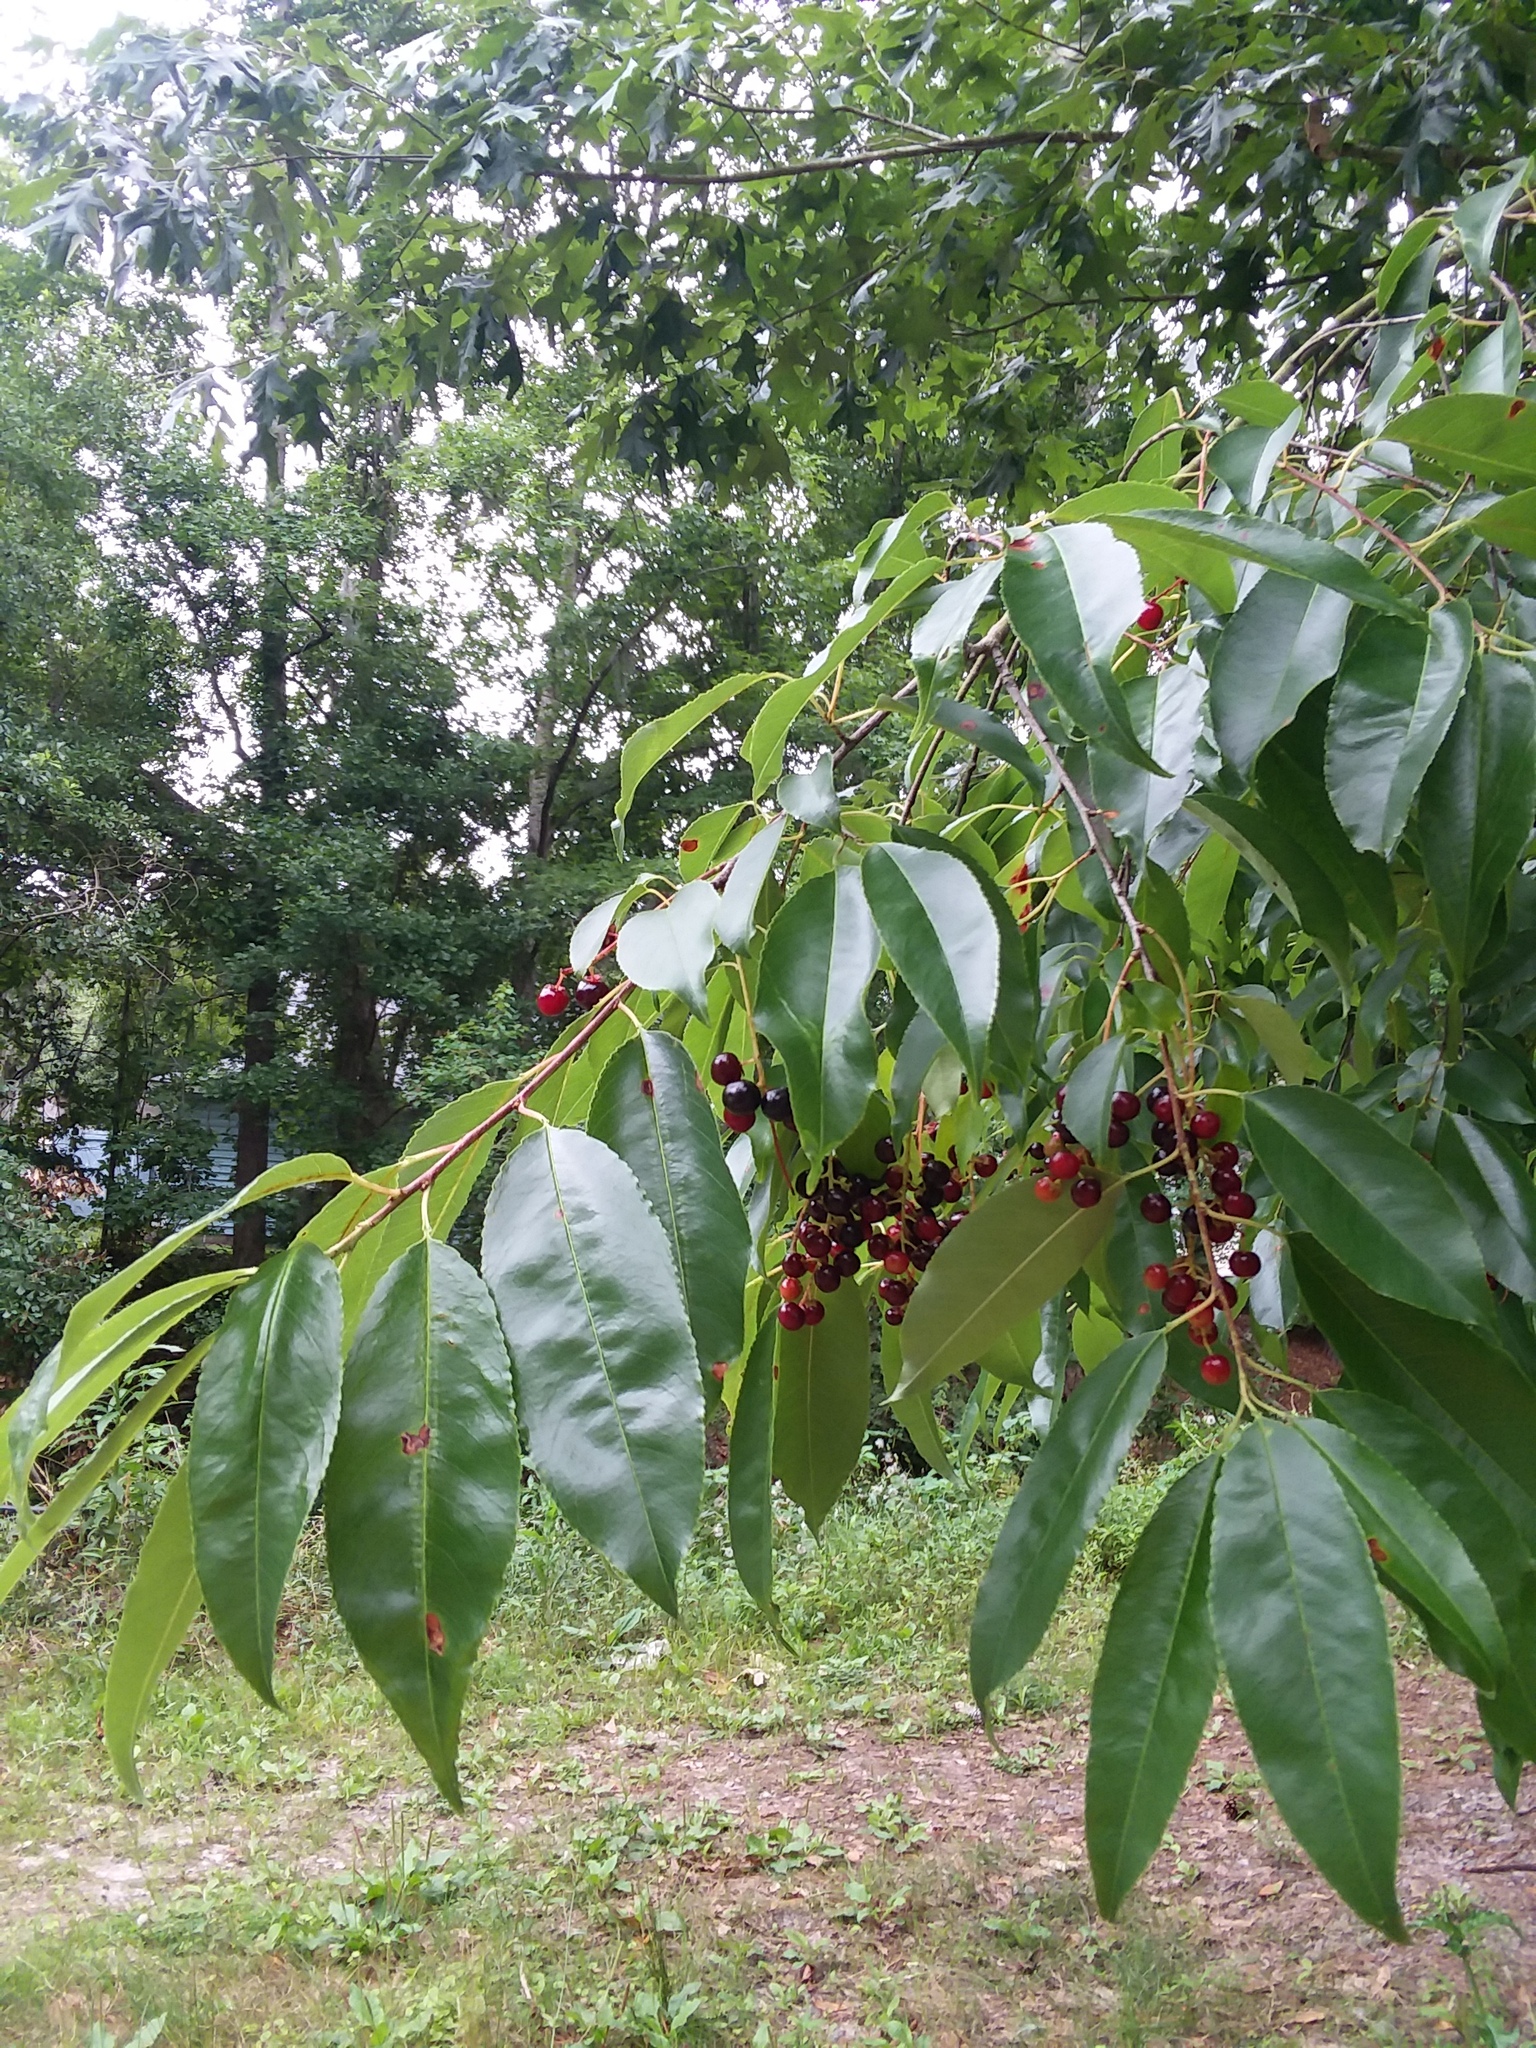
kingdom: Plantae
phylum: Tracheophyta
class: Magnoliopsida
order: Rosales
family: Rosaceae
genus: Prunus
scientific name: Prunus serotina
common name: Black cherry
